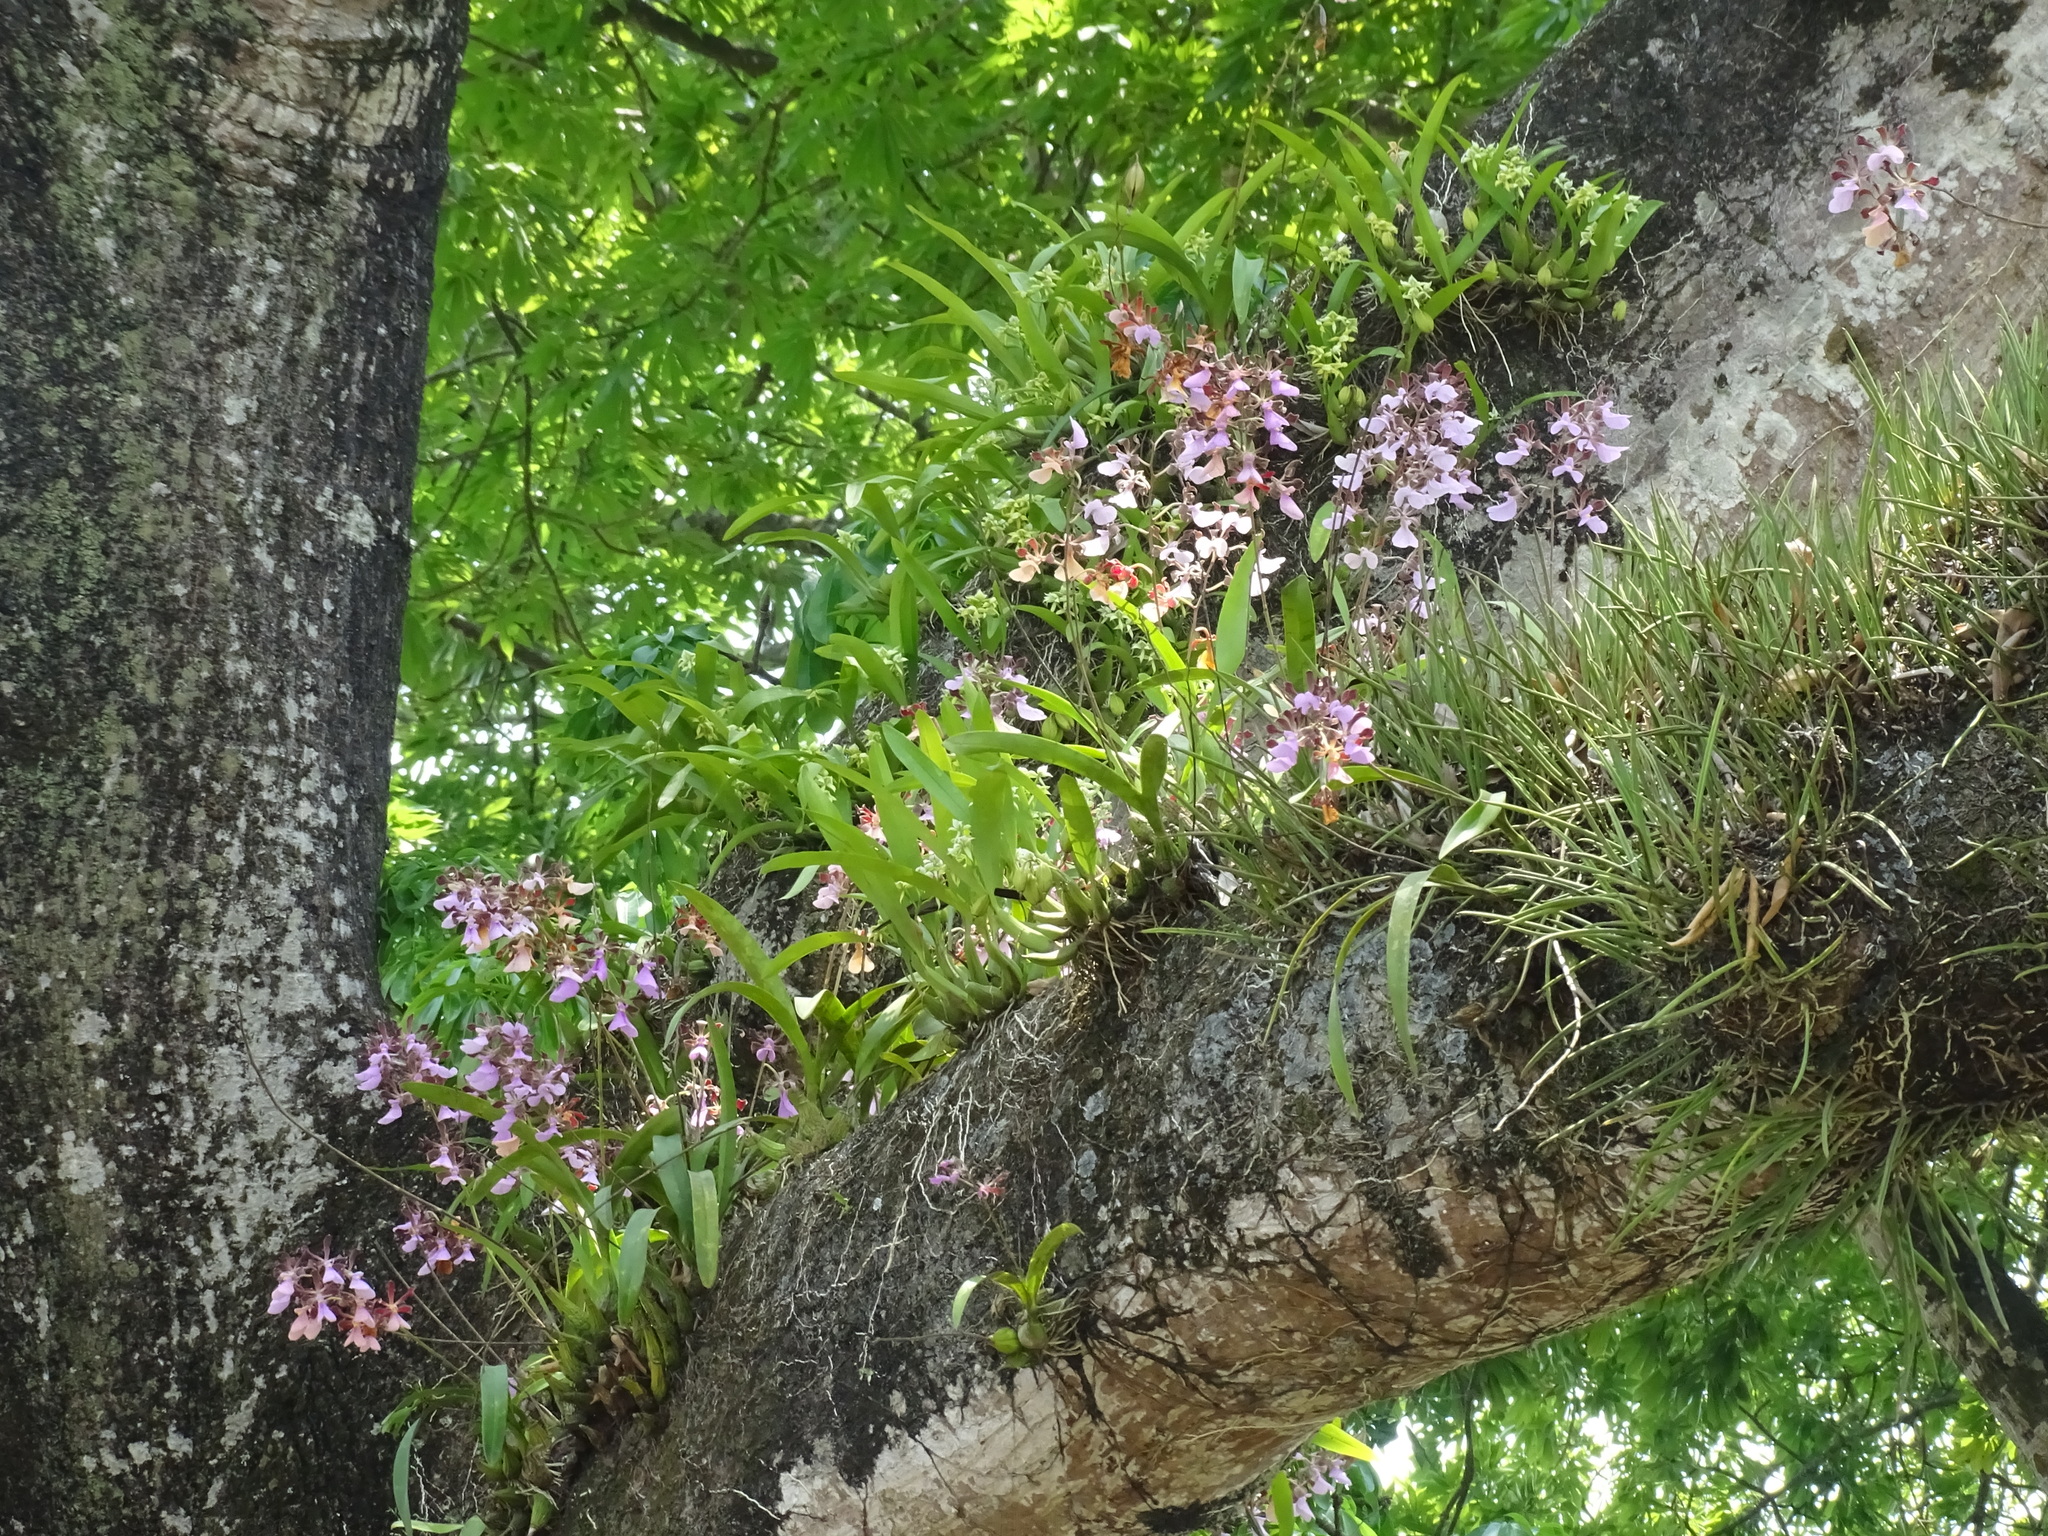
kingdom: Plantae
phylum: Tracheophyta
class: Liliopsida
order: Asparagales
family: Orchidaceae
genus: Encyclia
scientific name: Encyclia cordigera
